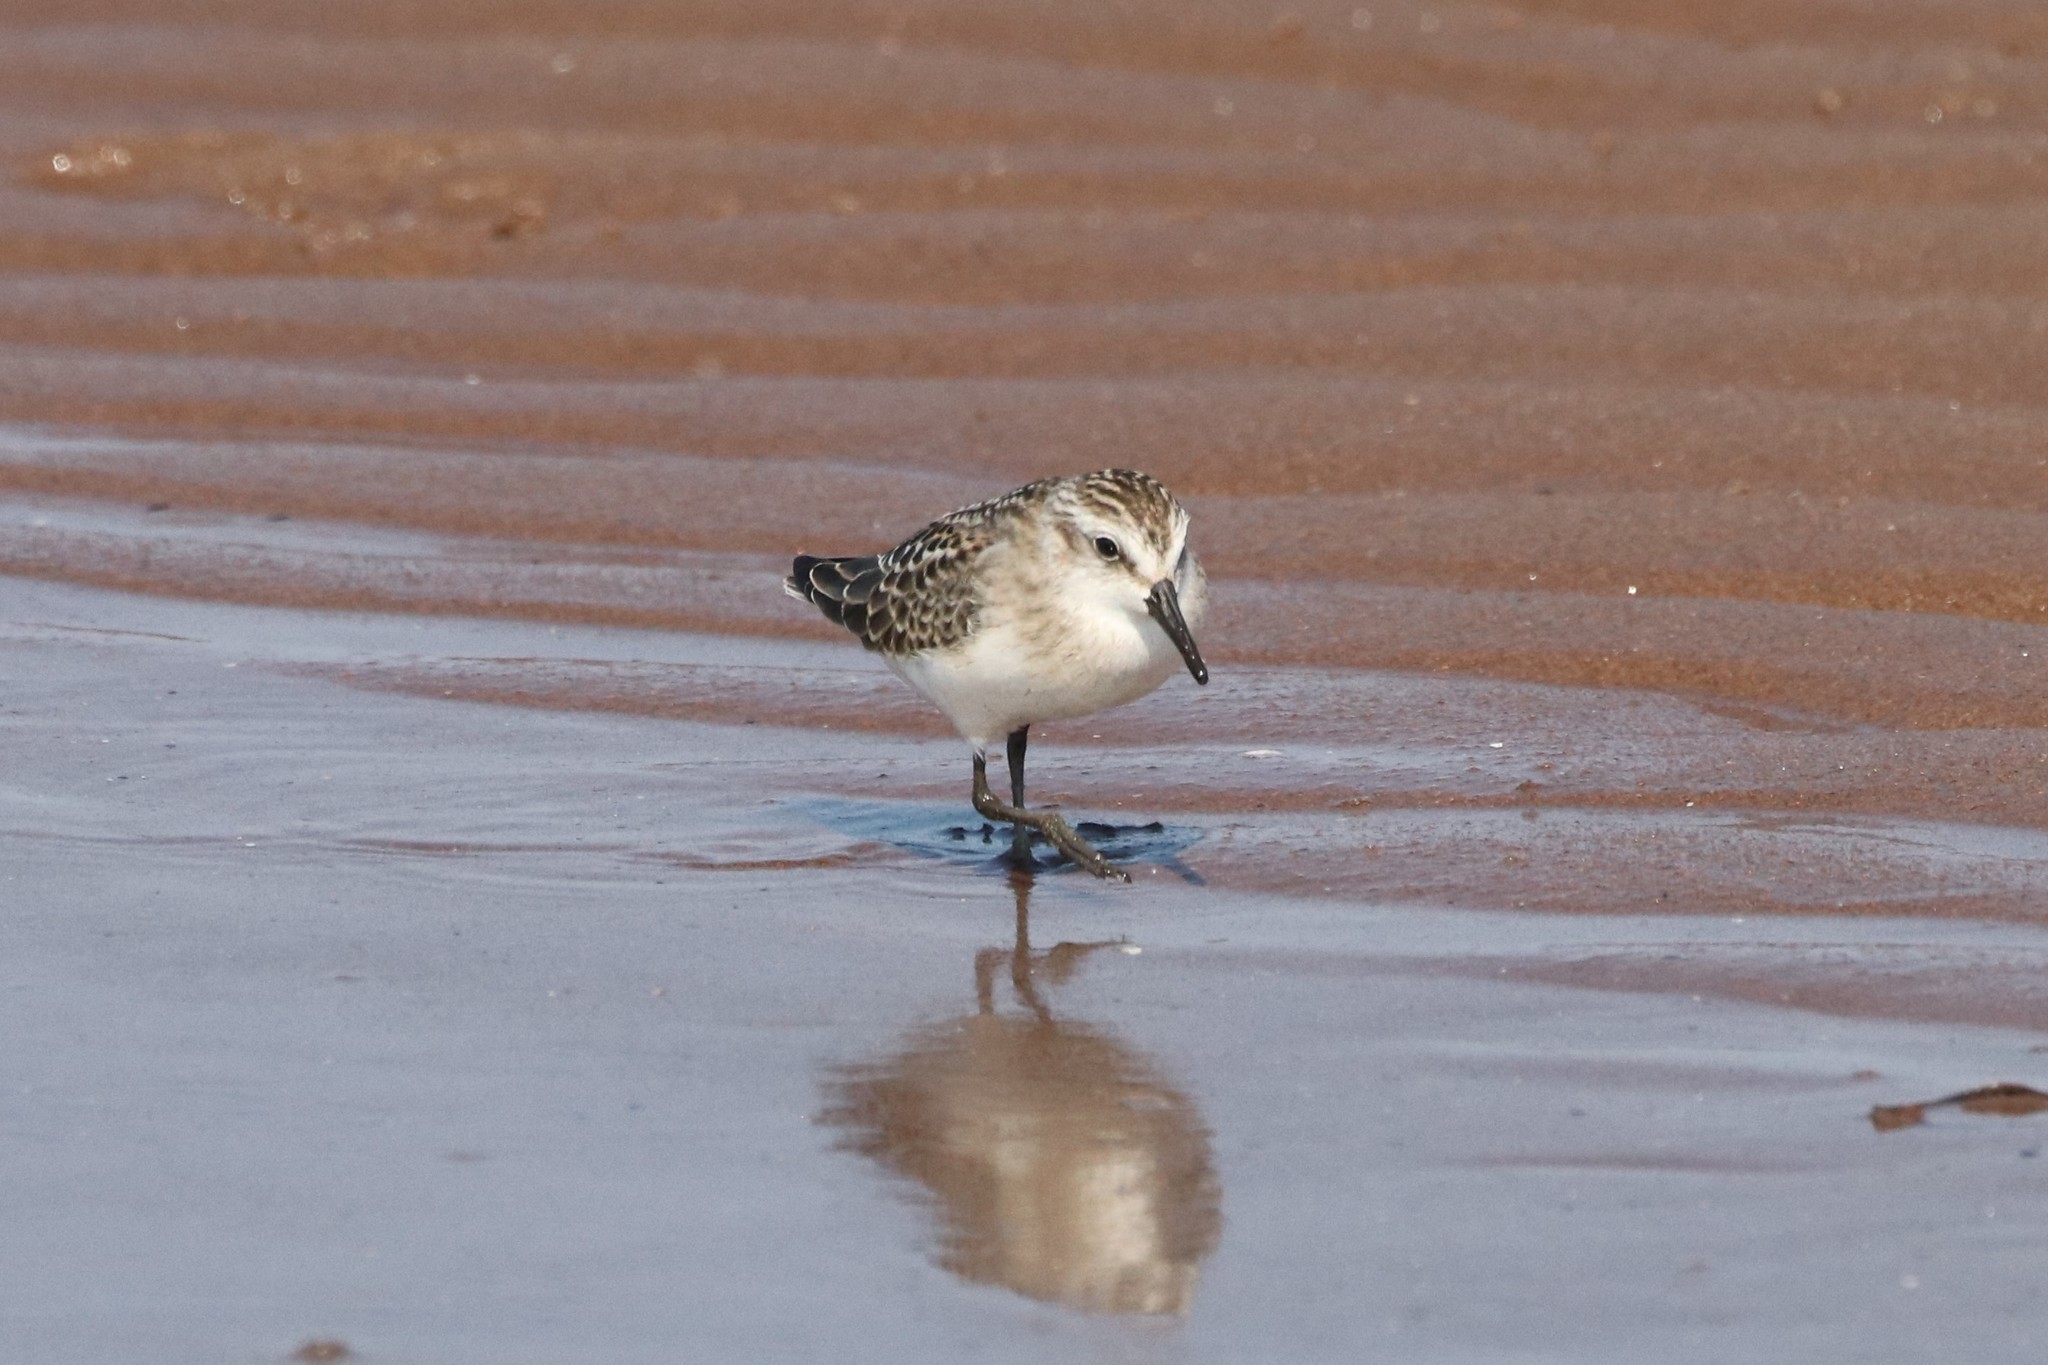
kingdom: Animalia
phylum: Chordata
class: Aves
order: Charadriiformes
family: Scolopacidae
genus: Calidris
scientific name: Calidris pusilla
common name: Semipalmated sandpiper
